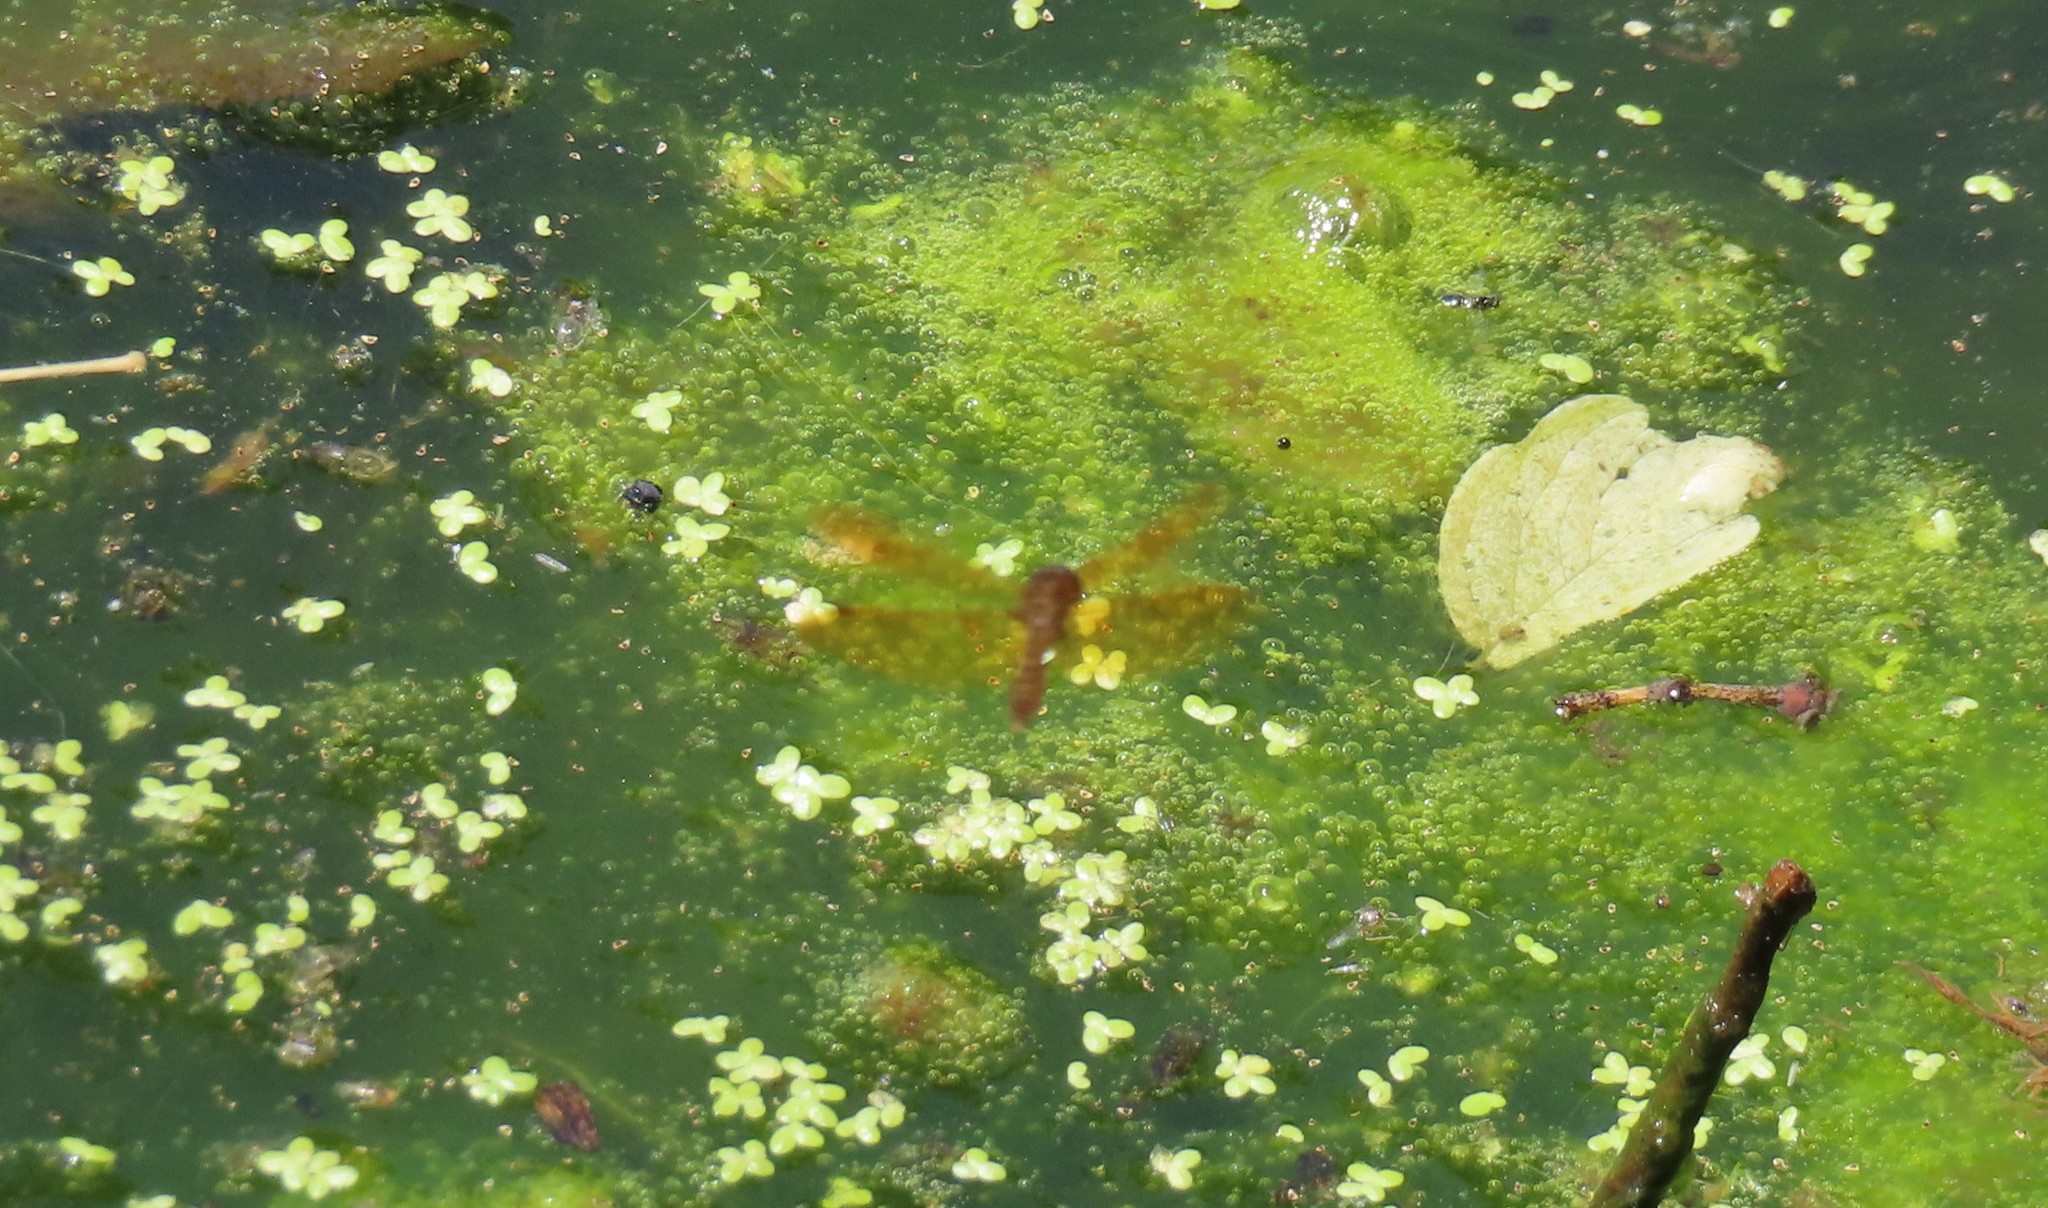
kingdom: Animalia
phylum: Arthropoda
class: Insecta
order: Odonata
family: Libellulidae
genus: Perithemis
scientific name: Perithemis tenera
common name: Eastern amberwing
